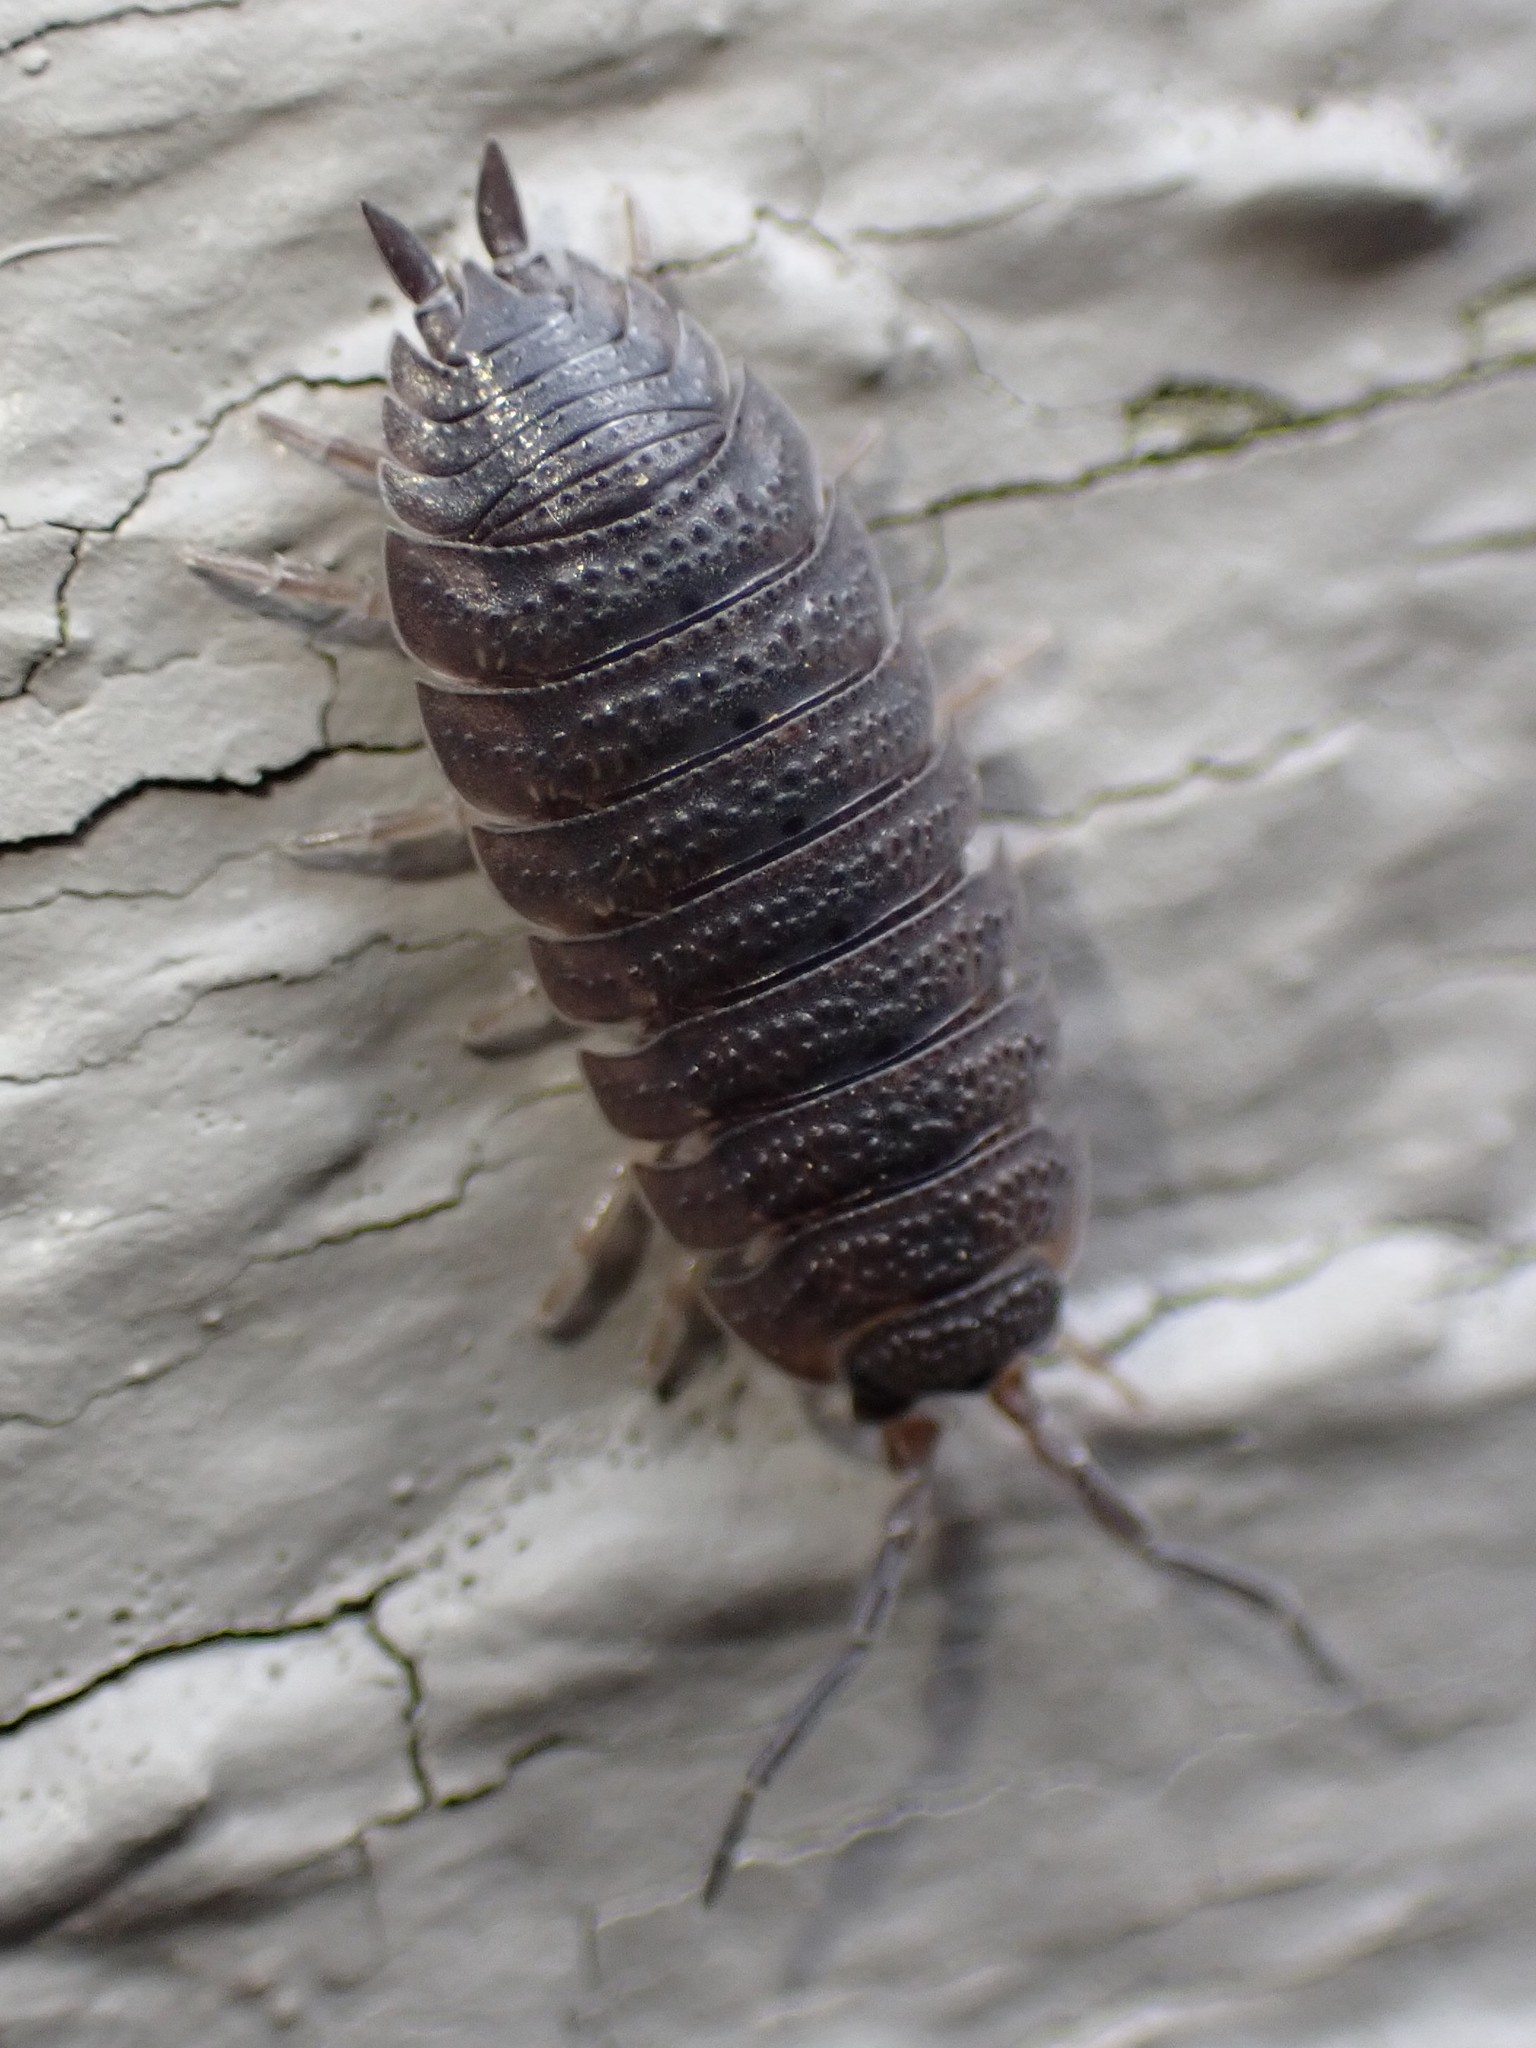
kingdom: Animalia
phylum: Arthropoda
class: Malacostraca
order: Isopoda
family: Porcellionidae
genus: Porcellio
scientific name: Porcellio scaber
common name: Common rough woodlouse
